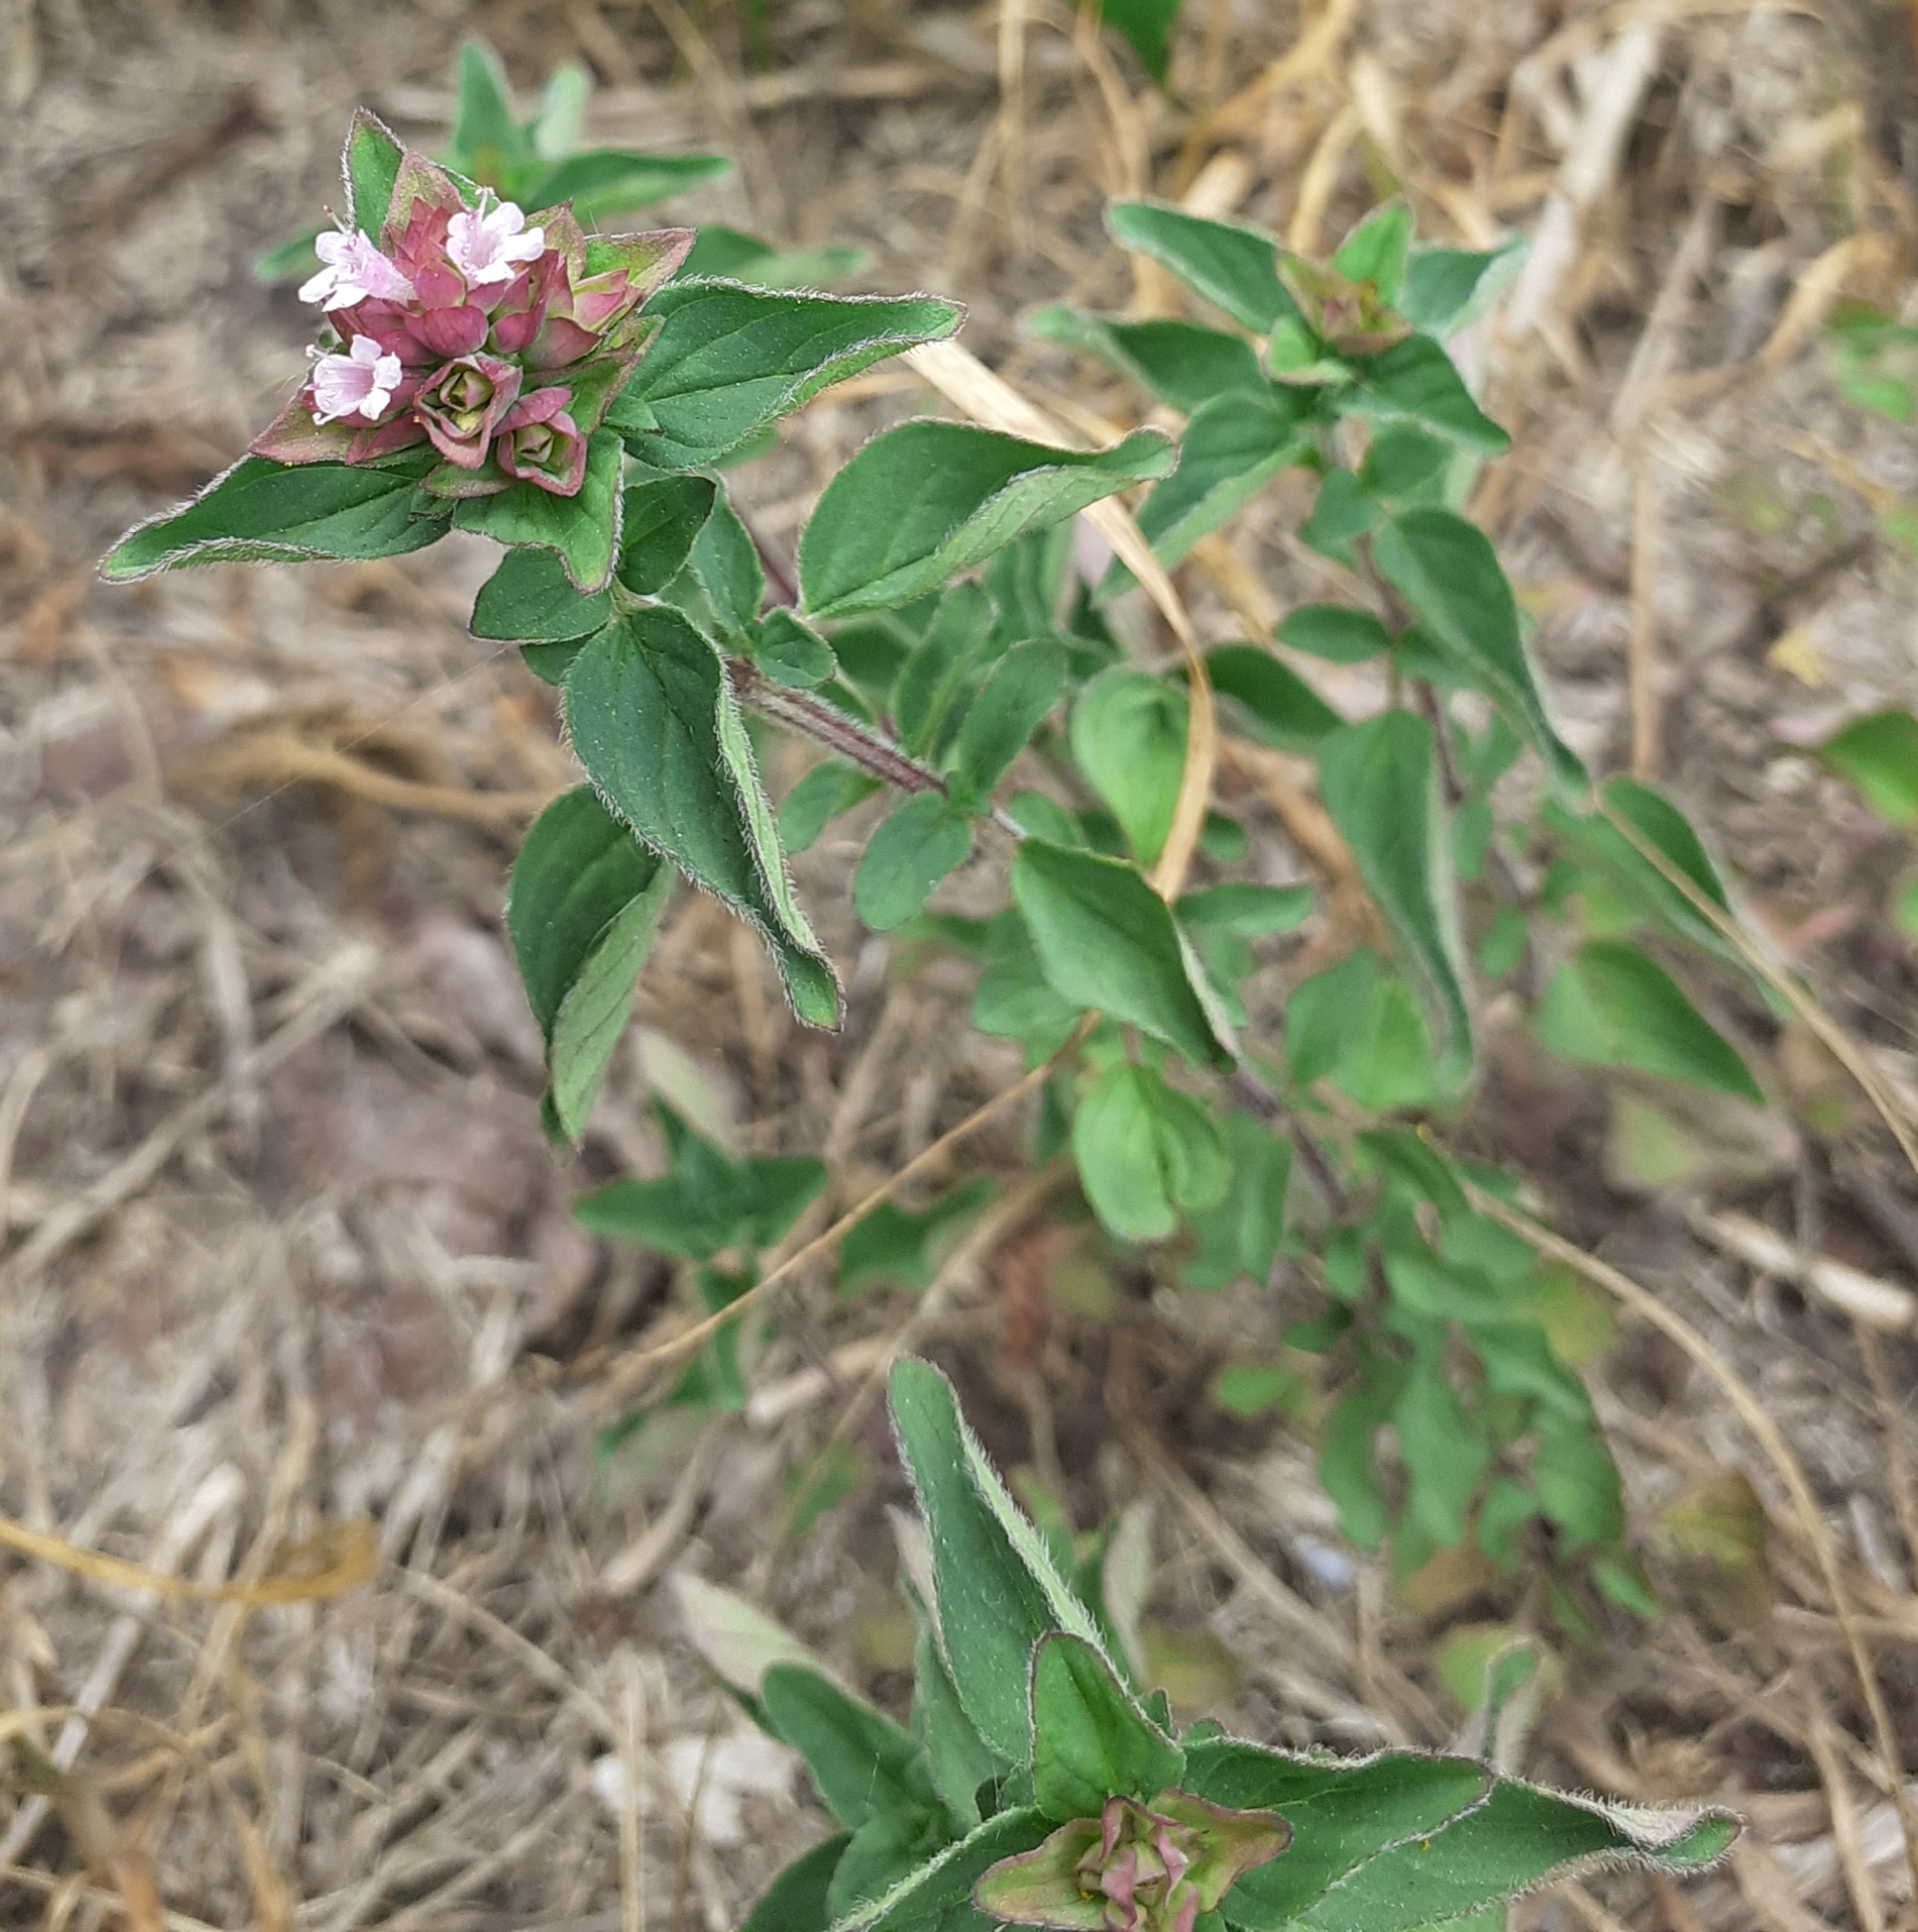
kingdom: Plantae
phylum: Tracheophyta
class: Magnoliopsida
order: Lamiales
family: Lamiaceae
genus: Origanum
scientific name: Origanum vulgare
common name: Wild marjoram
